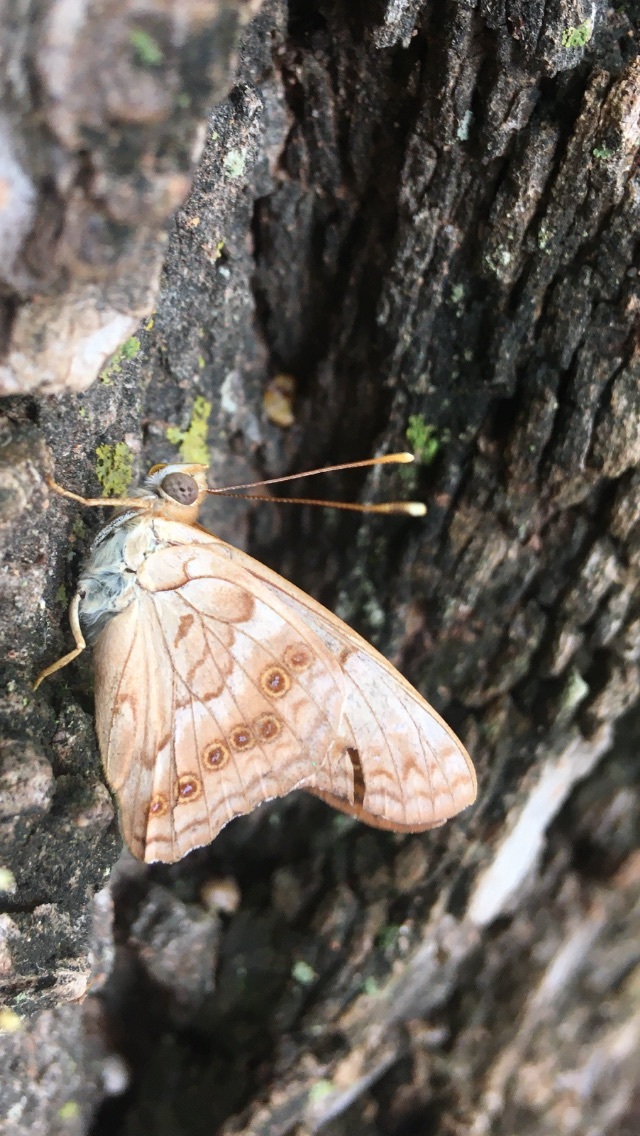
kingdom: Animalia
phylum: Arthropoda
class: Insecta
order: Lepidoptera
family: Nymphalidae
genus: Asterocampa
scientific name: Asterocampa clyton
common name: Tawny emperor
